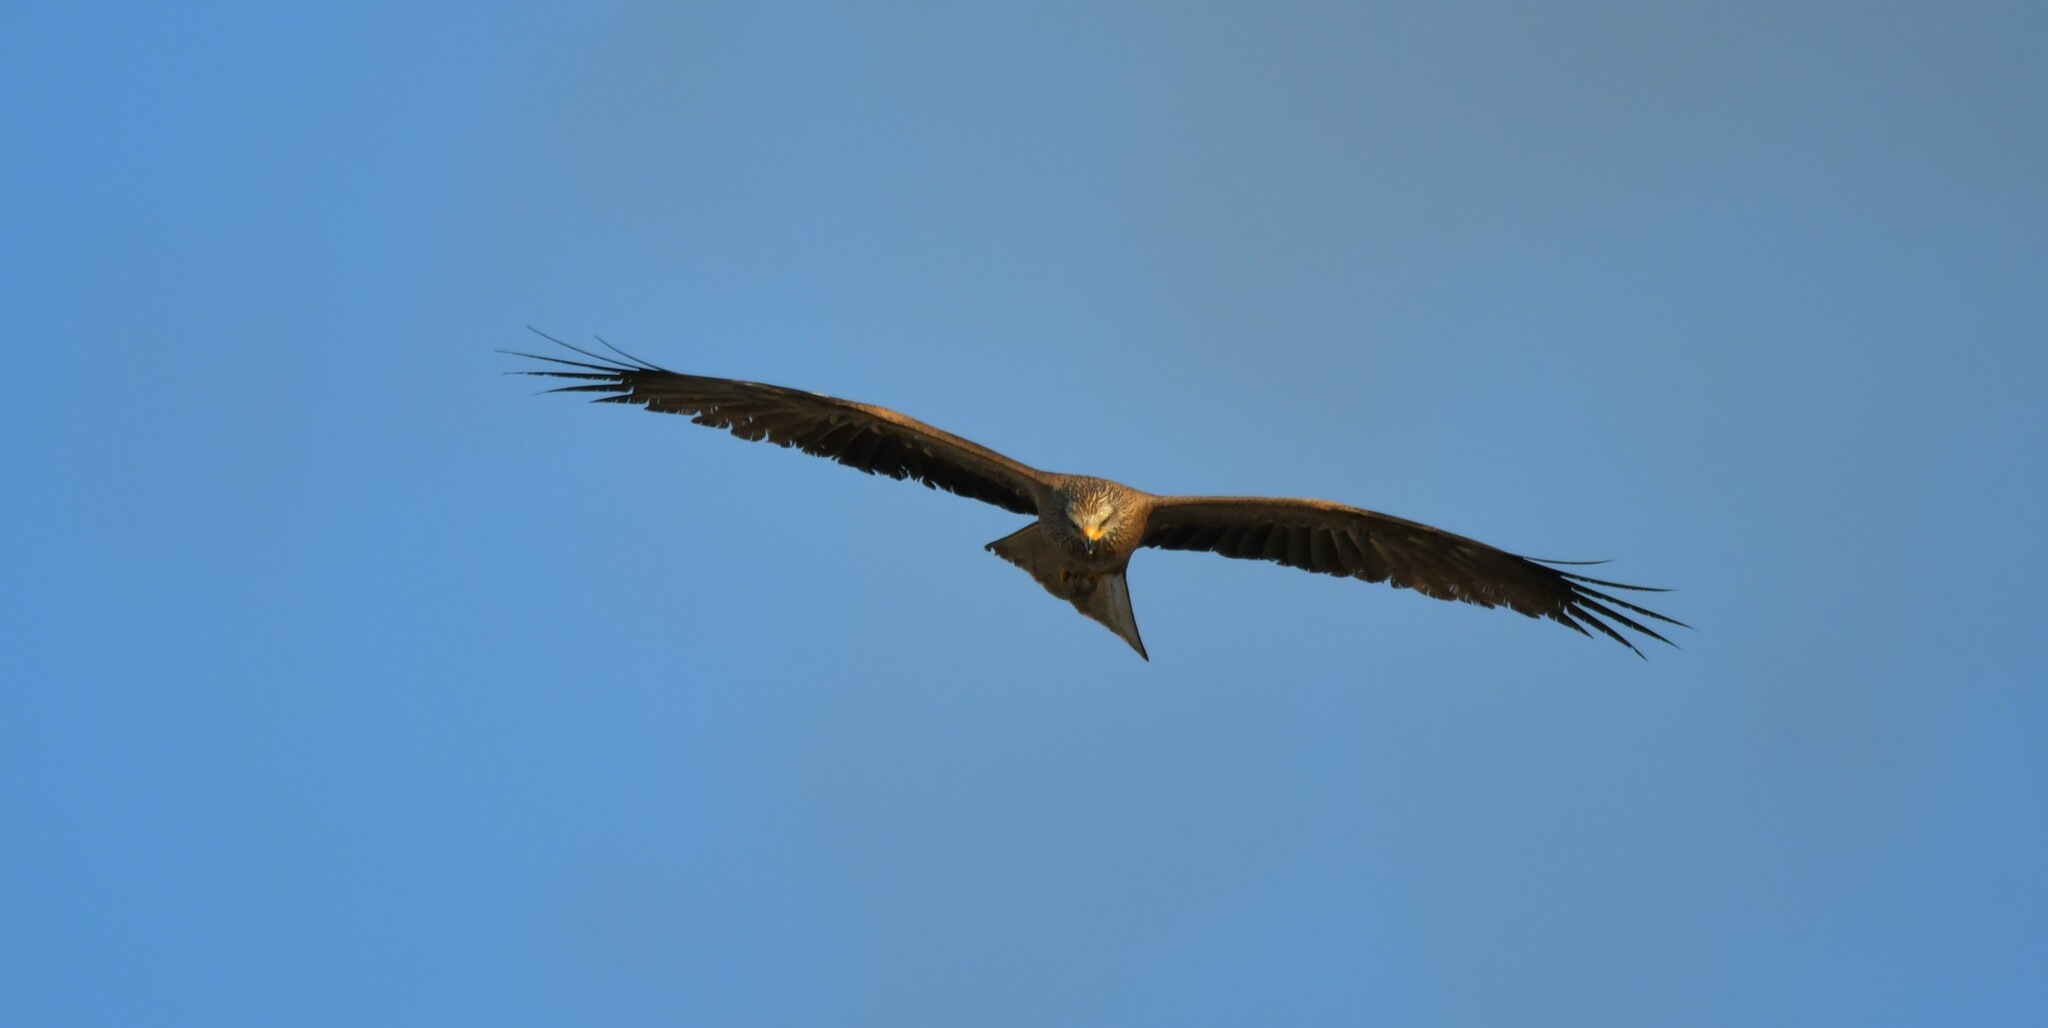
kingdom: Animalia
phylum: Chordata
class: Aves
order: Accipitriformes
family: Accipitridae
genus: Milvus
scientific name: Milvus migrans
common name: Black kite
